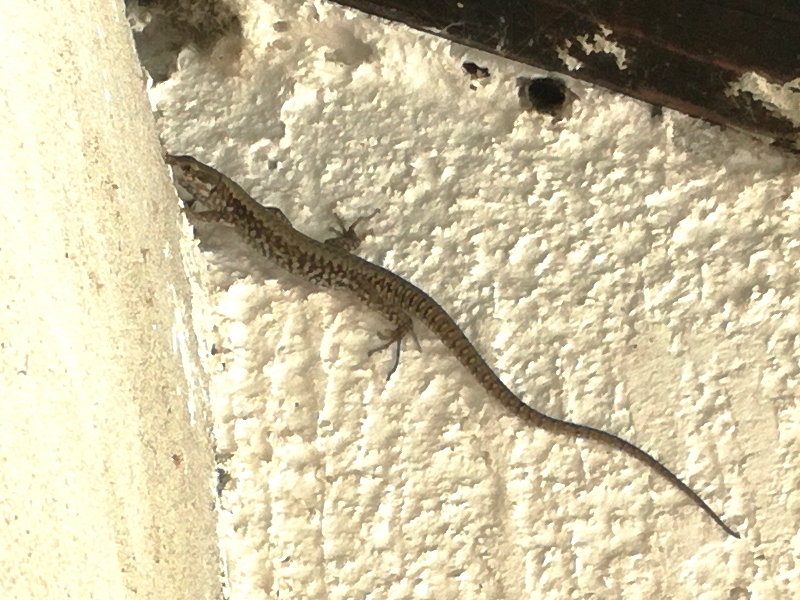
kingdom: Animalia
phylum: Chordata
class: Squamata
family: Lacertidae
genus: Podarcis
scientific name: Podarcis muralis
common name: Common wall lizard
